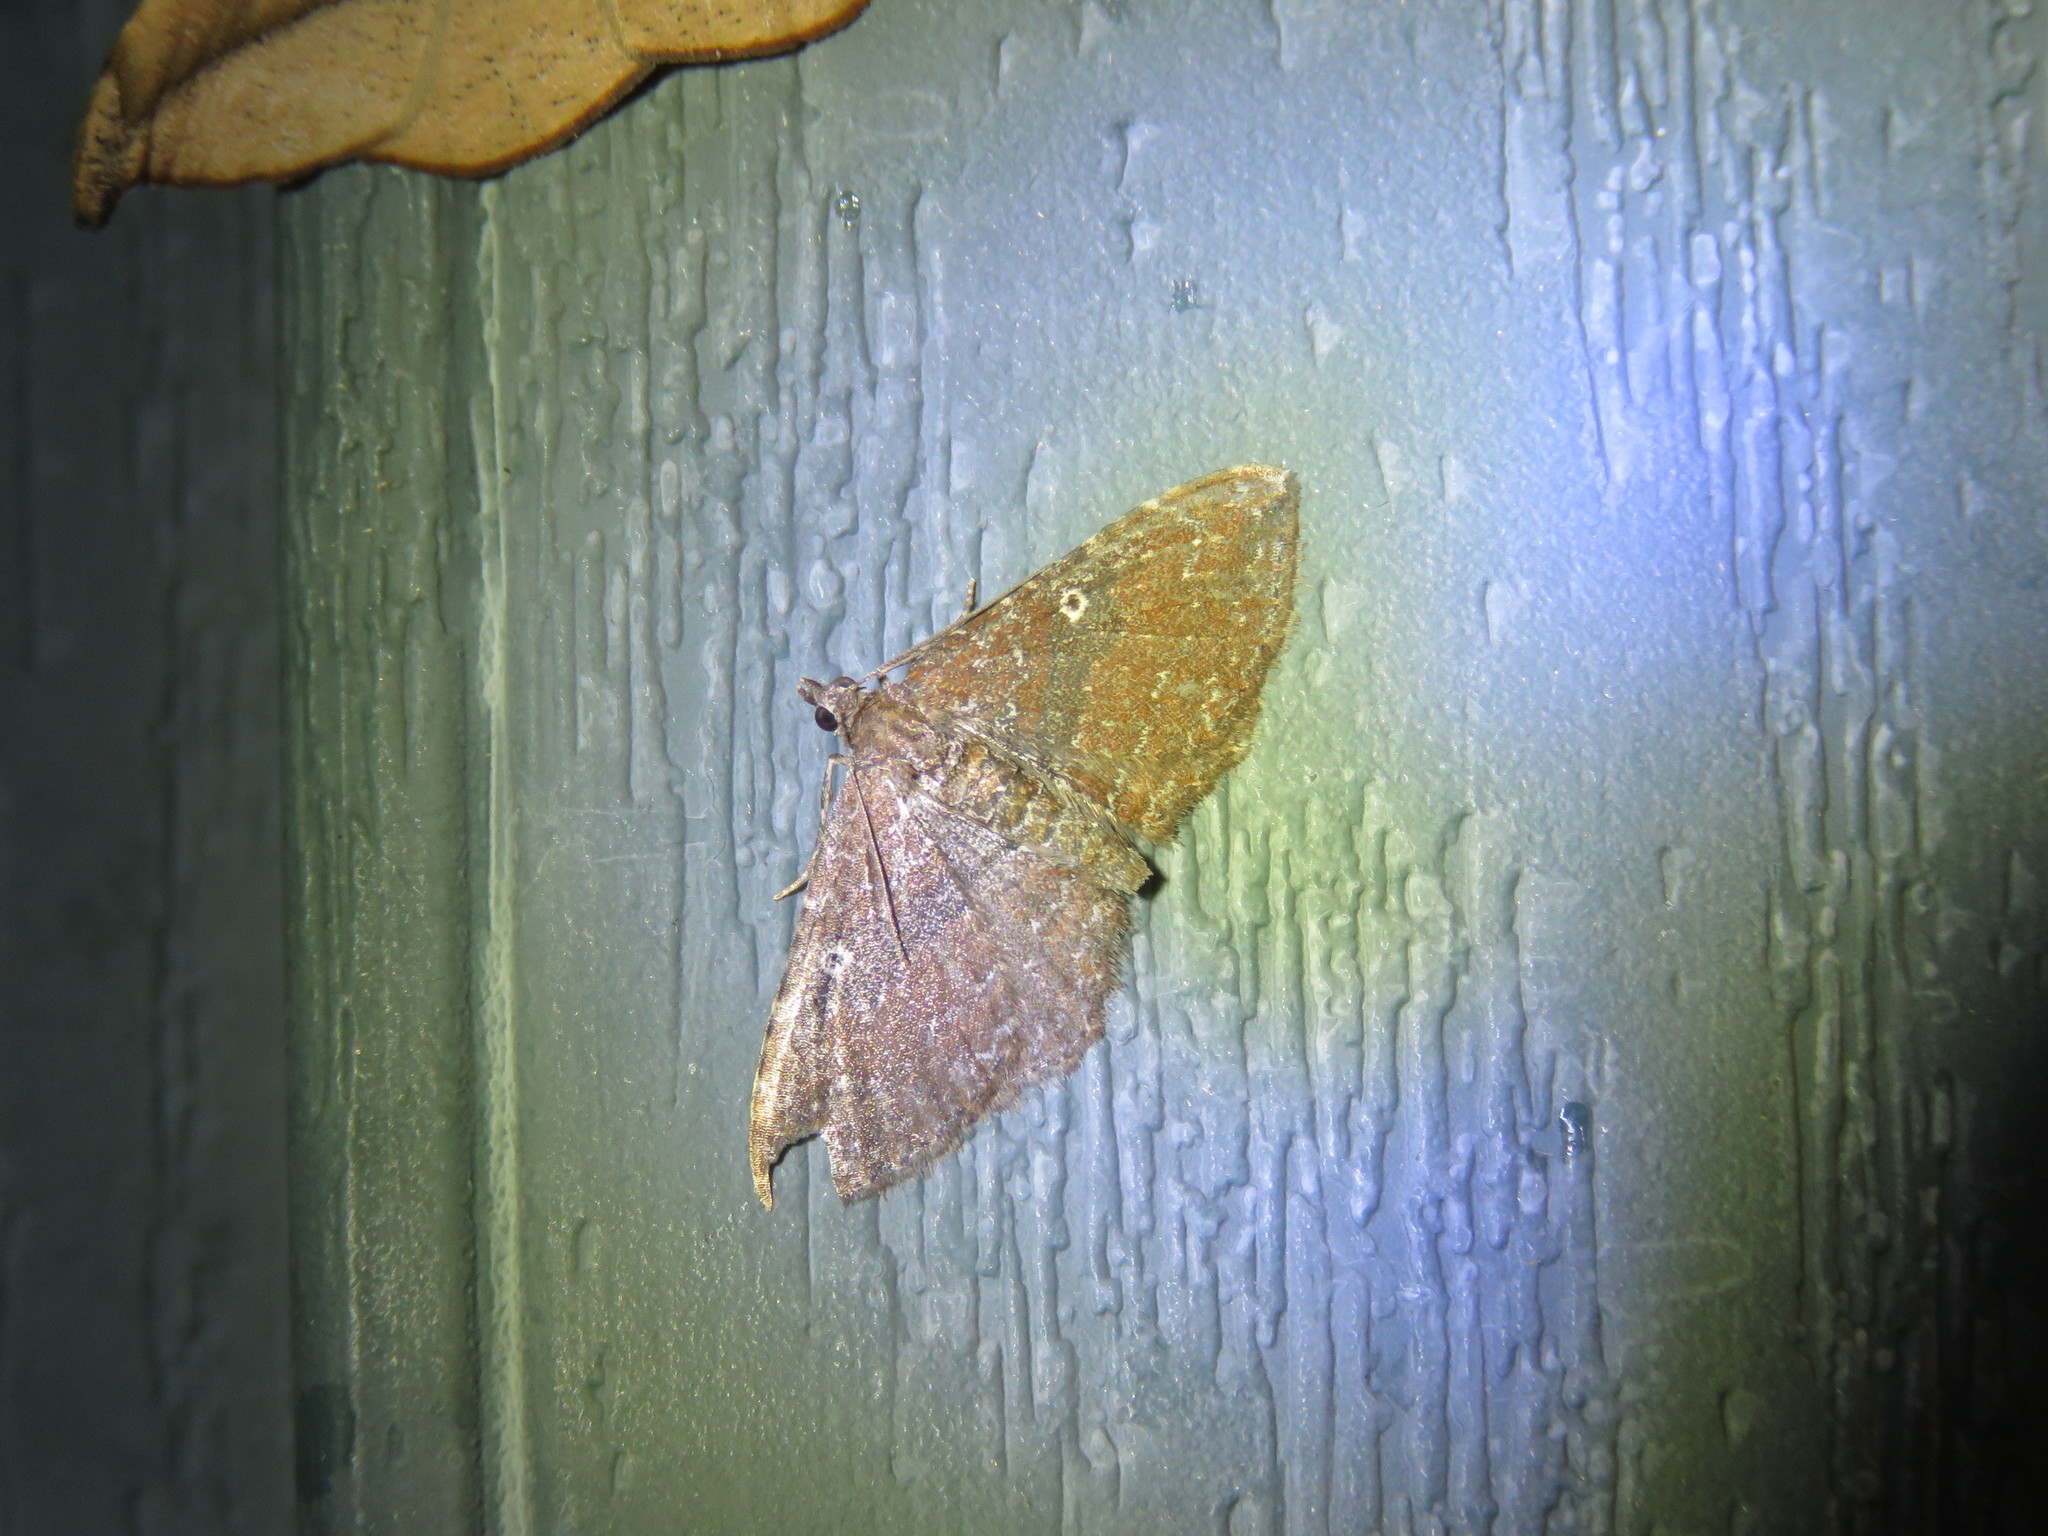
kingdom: Animalia
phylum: Arthropoda
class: Insecta
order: Lepidoptera
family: Geometridae
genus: Orthonama
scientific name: Orthonama obstipata
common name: The gem
